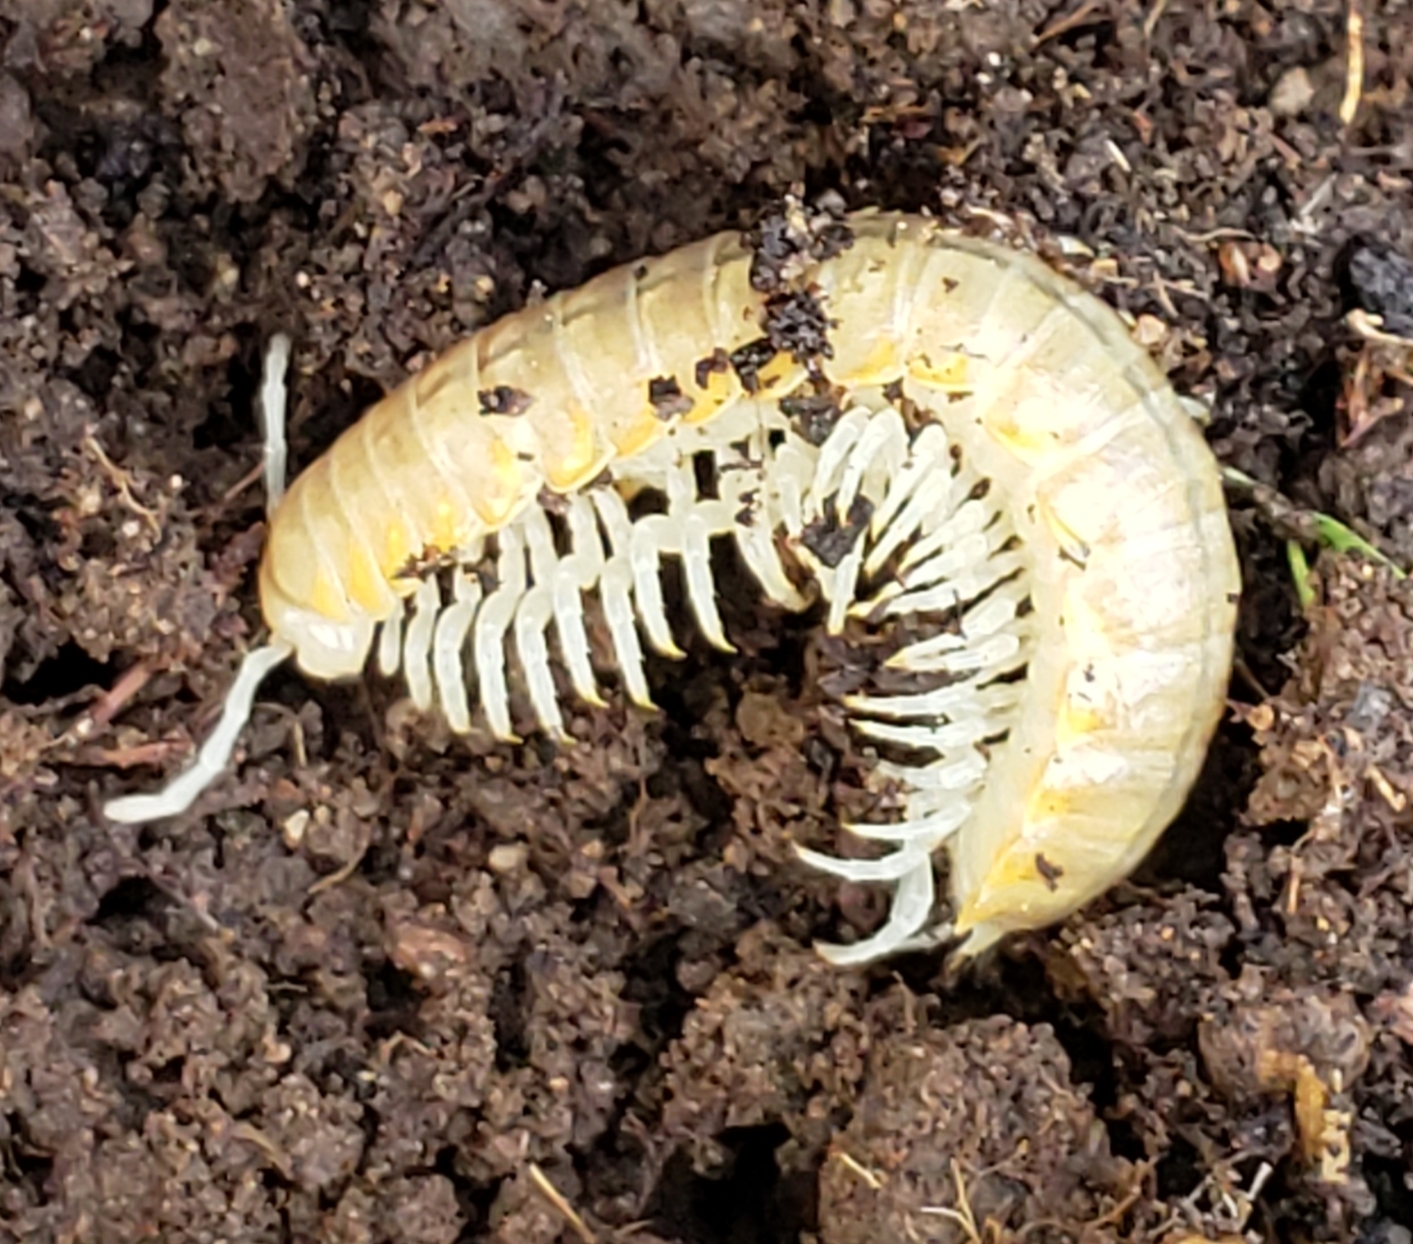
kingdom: Animalia
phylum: Arthropoda
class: Diplopoda
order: Polydesmida
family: Xystodesmidae
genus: Xystocheir
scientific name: Xystocheir dissecta
